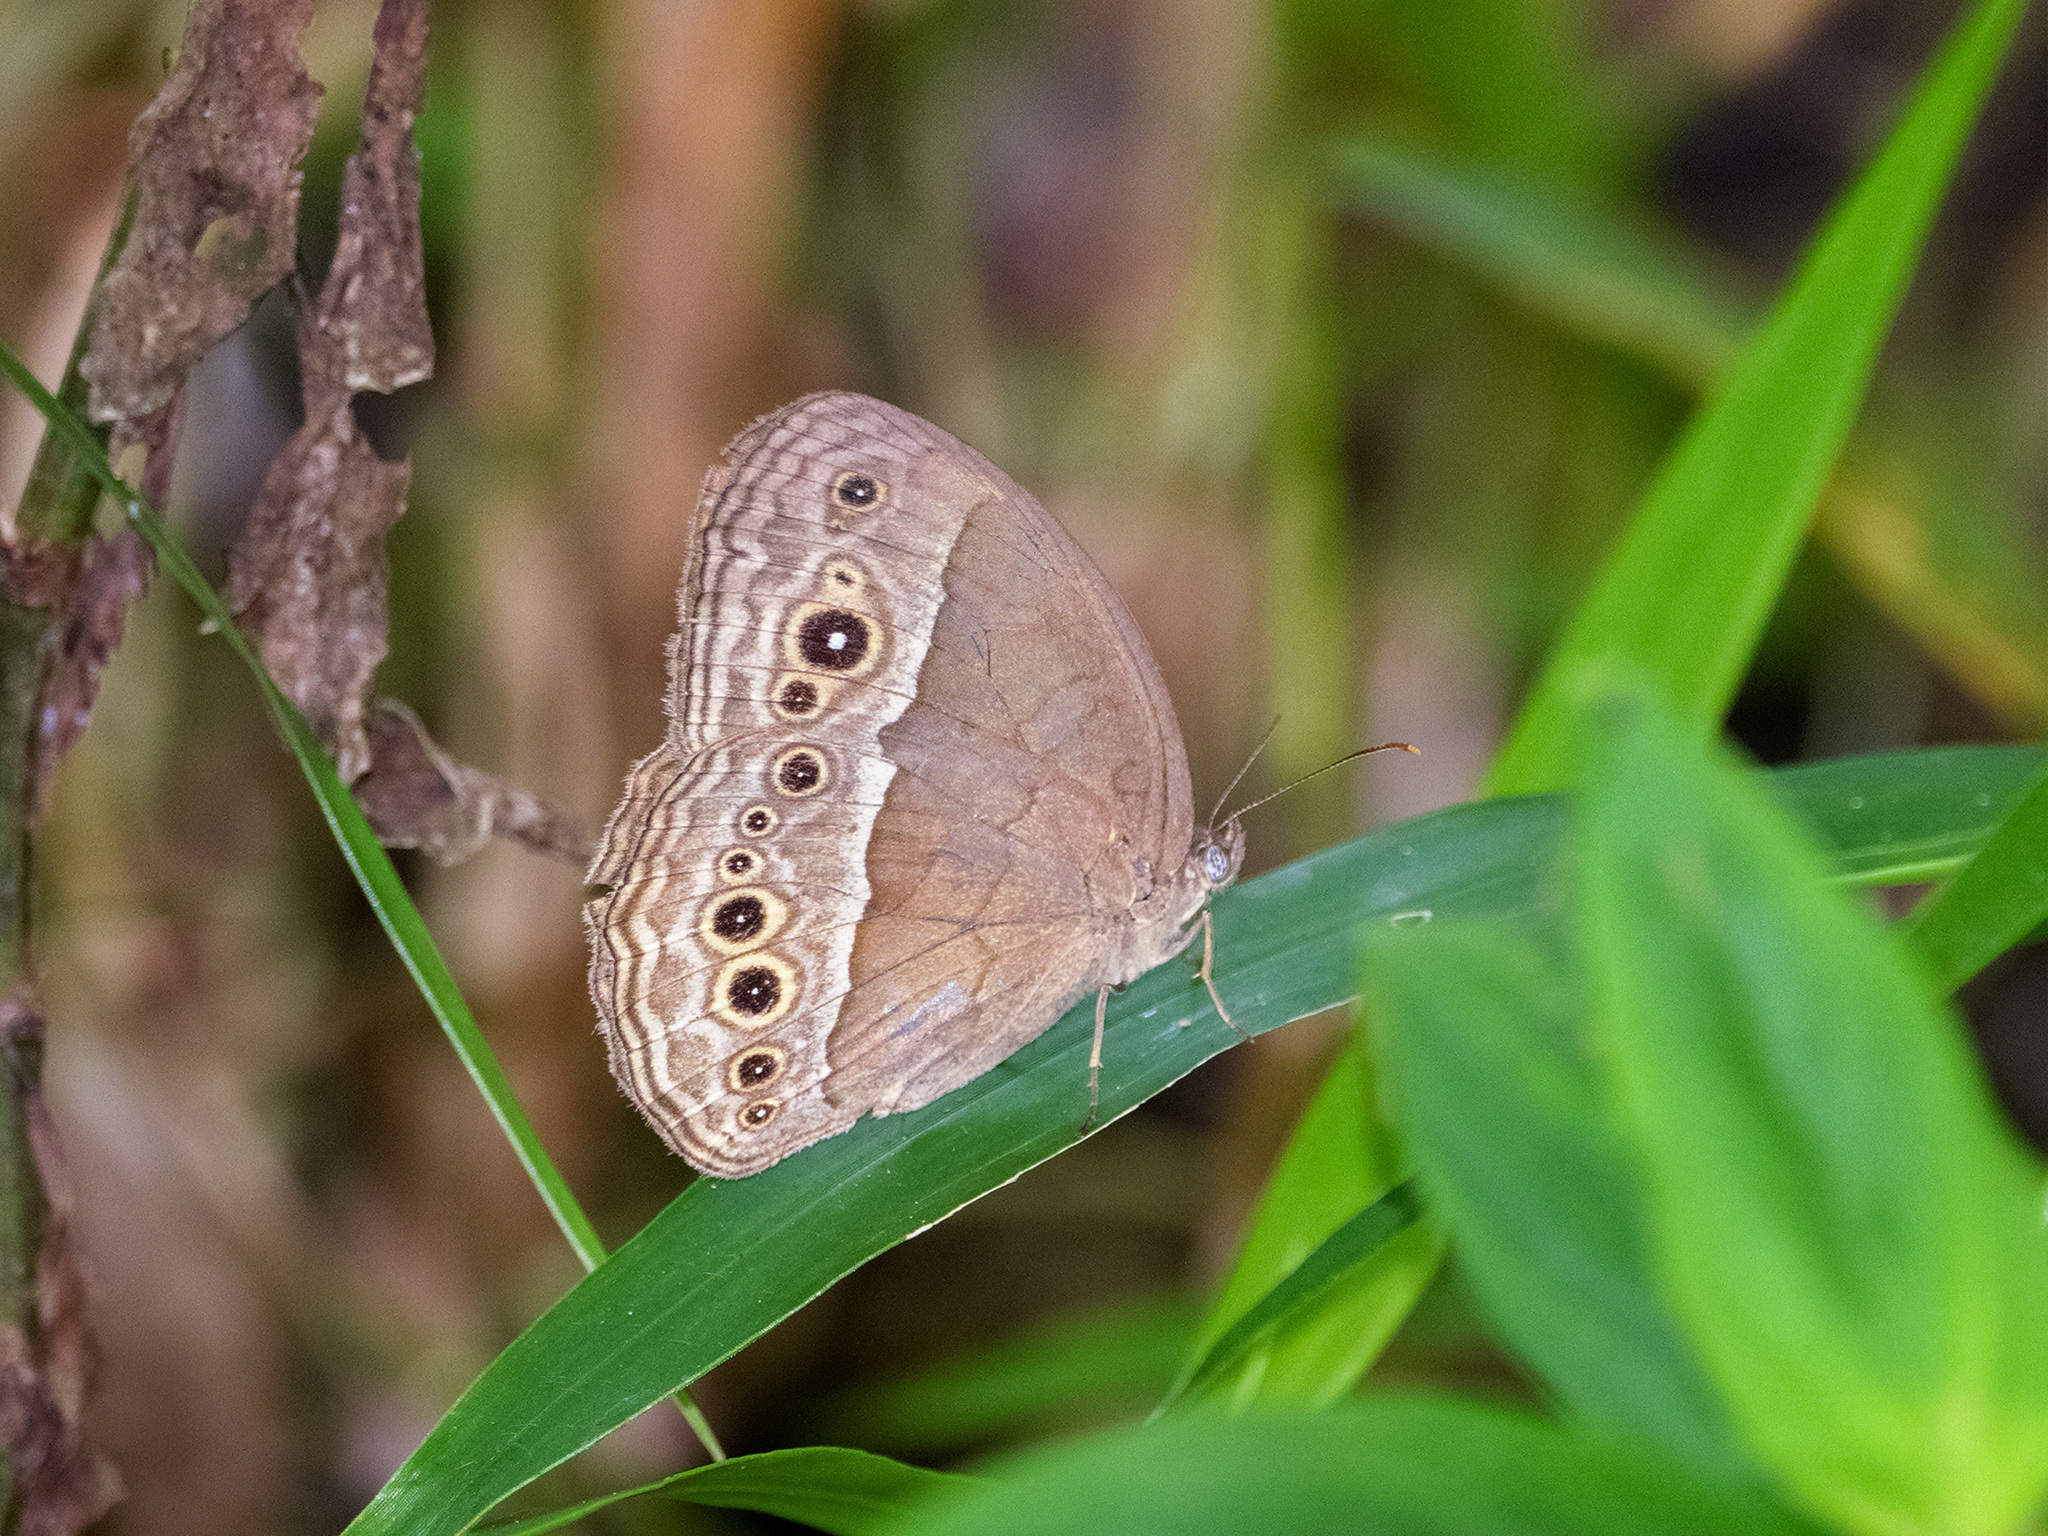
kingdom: Animalia
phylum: Arthropoda
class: Insecta
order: Lepidoptera
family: Nymphalidae
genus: Mycalesis
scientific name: Mycalesis perseoides
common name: Burmese bushbrown
